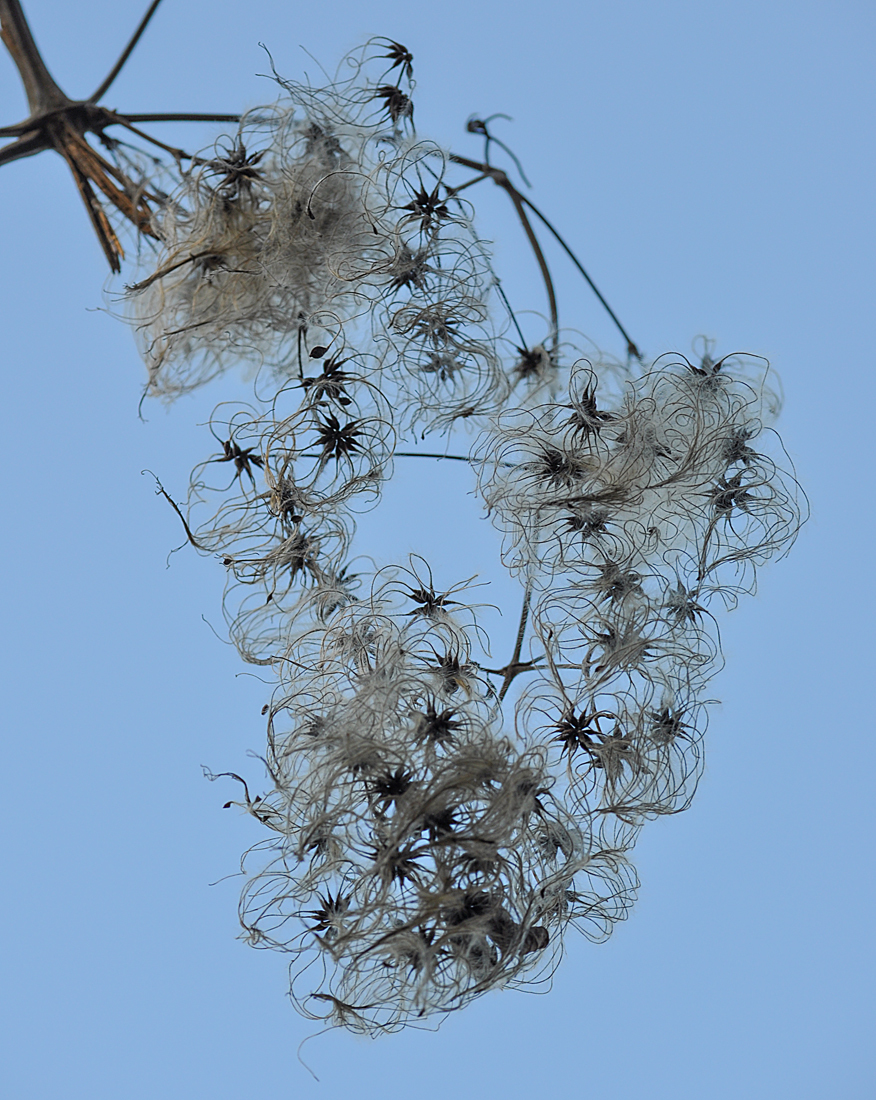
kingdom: Plantae
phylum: Tracheophyta
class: Magnoliopsida
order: Ranunculales
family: Ranunculaceae
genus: Clematis
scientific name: Clematis vitalba
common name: Evergreen clematis
